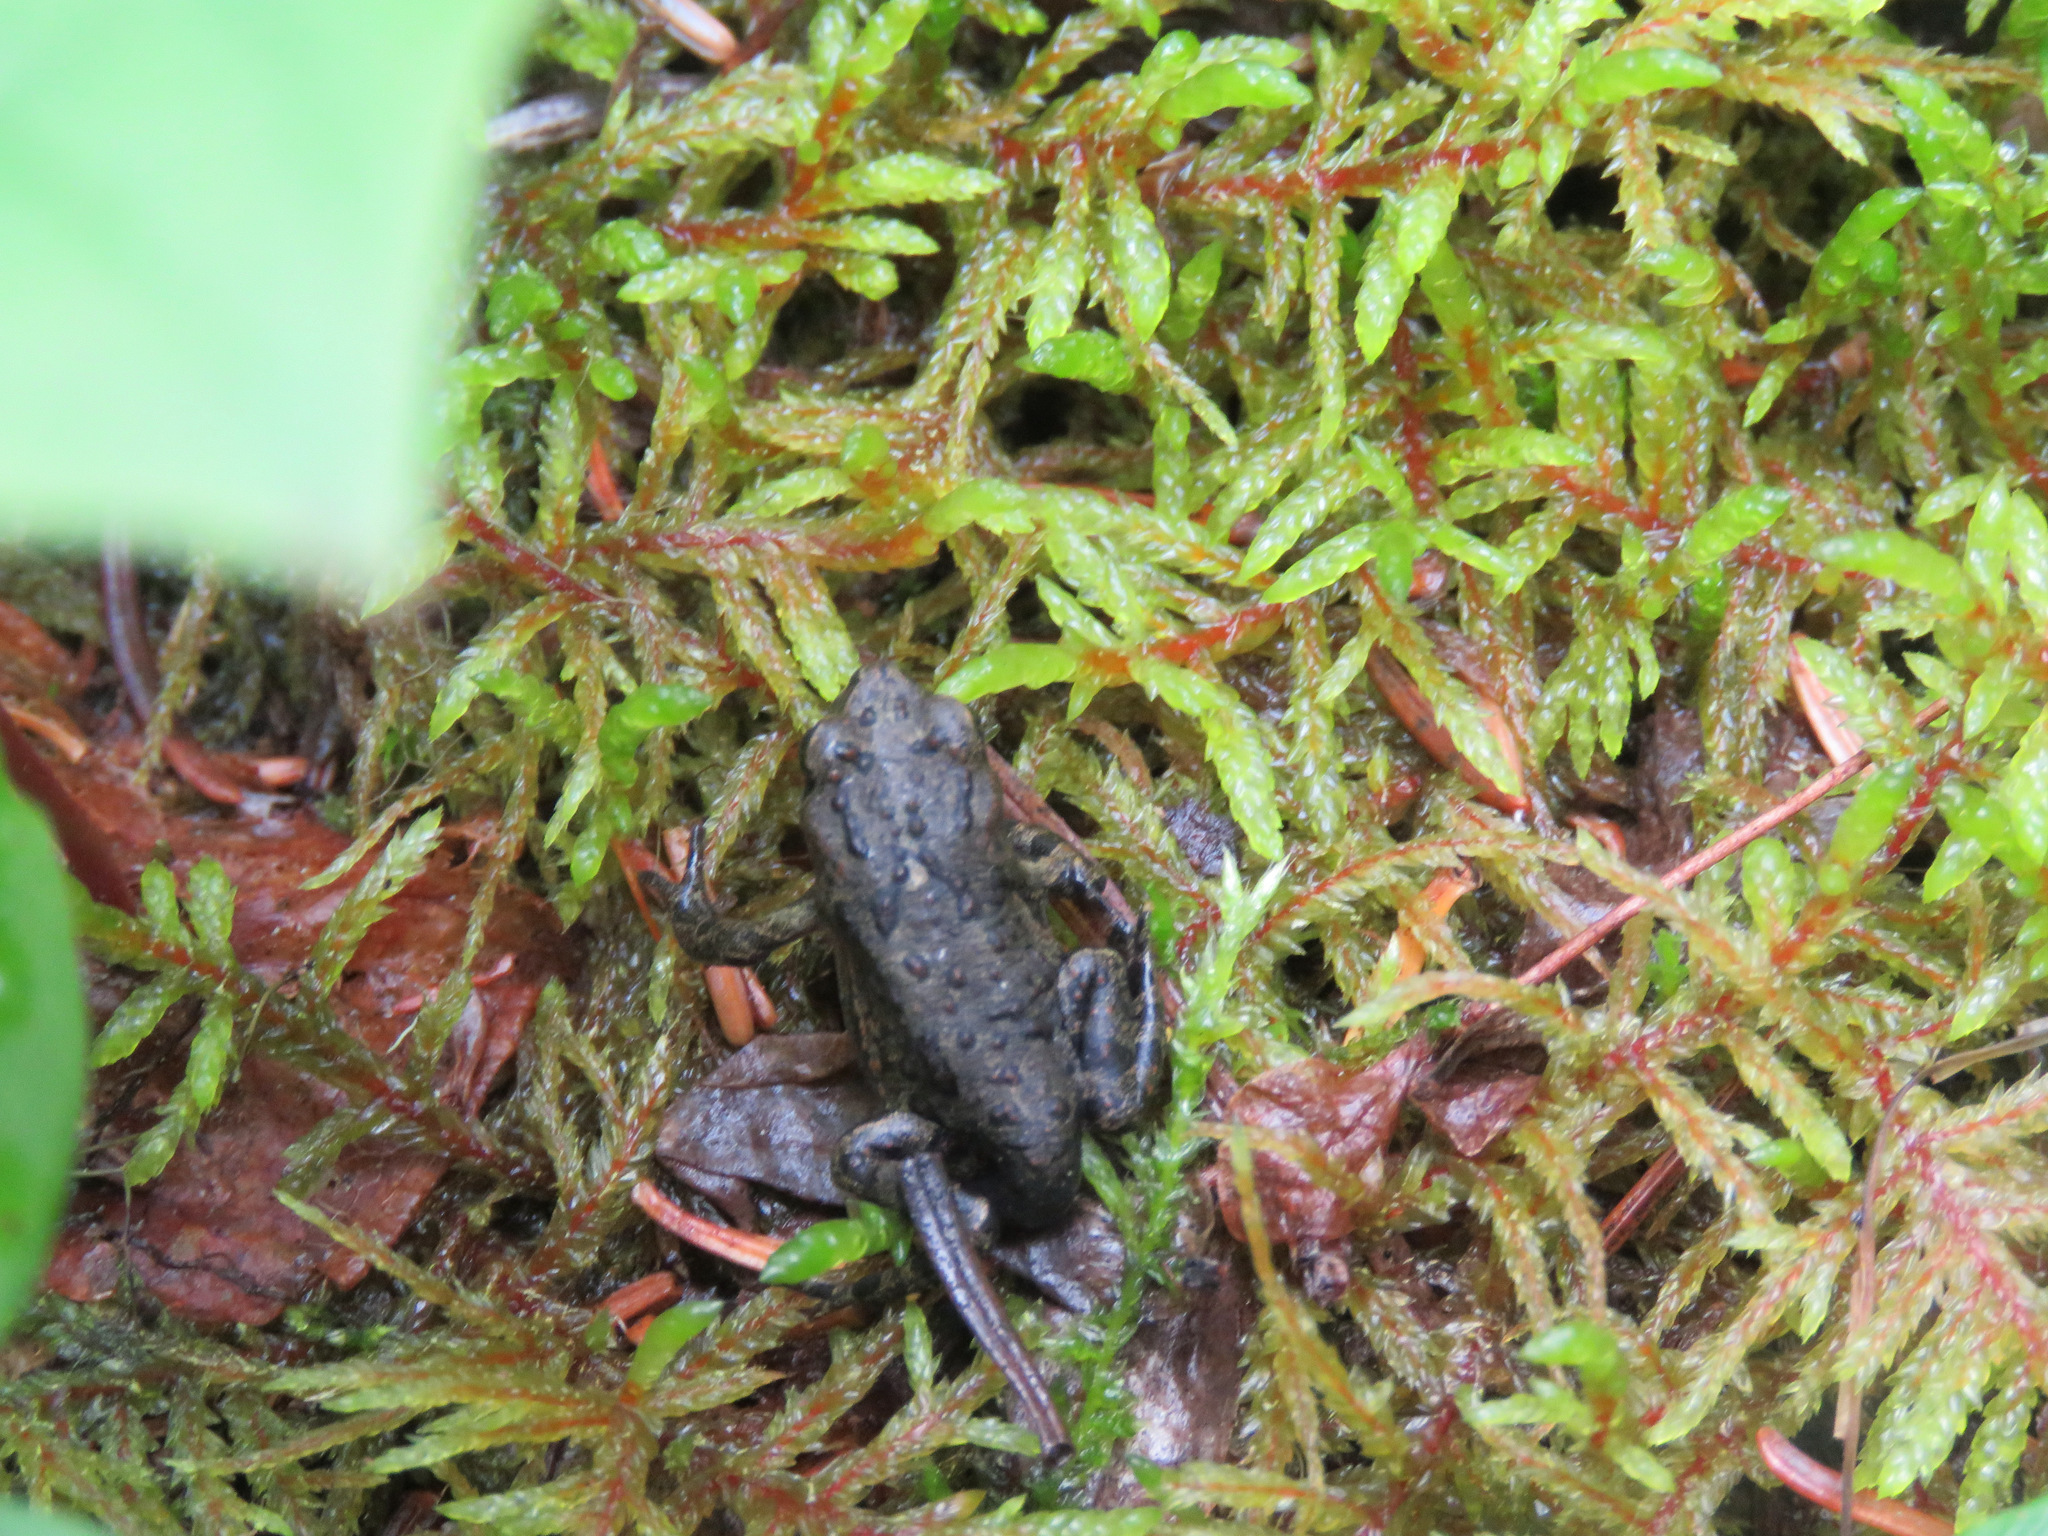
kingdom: Animalia
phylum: Chordata
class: Amphibia
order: Anura
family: Bufonidae
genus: Anaxyrus
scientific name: Anaxyrus boreas
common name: Western toad
